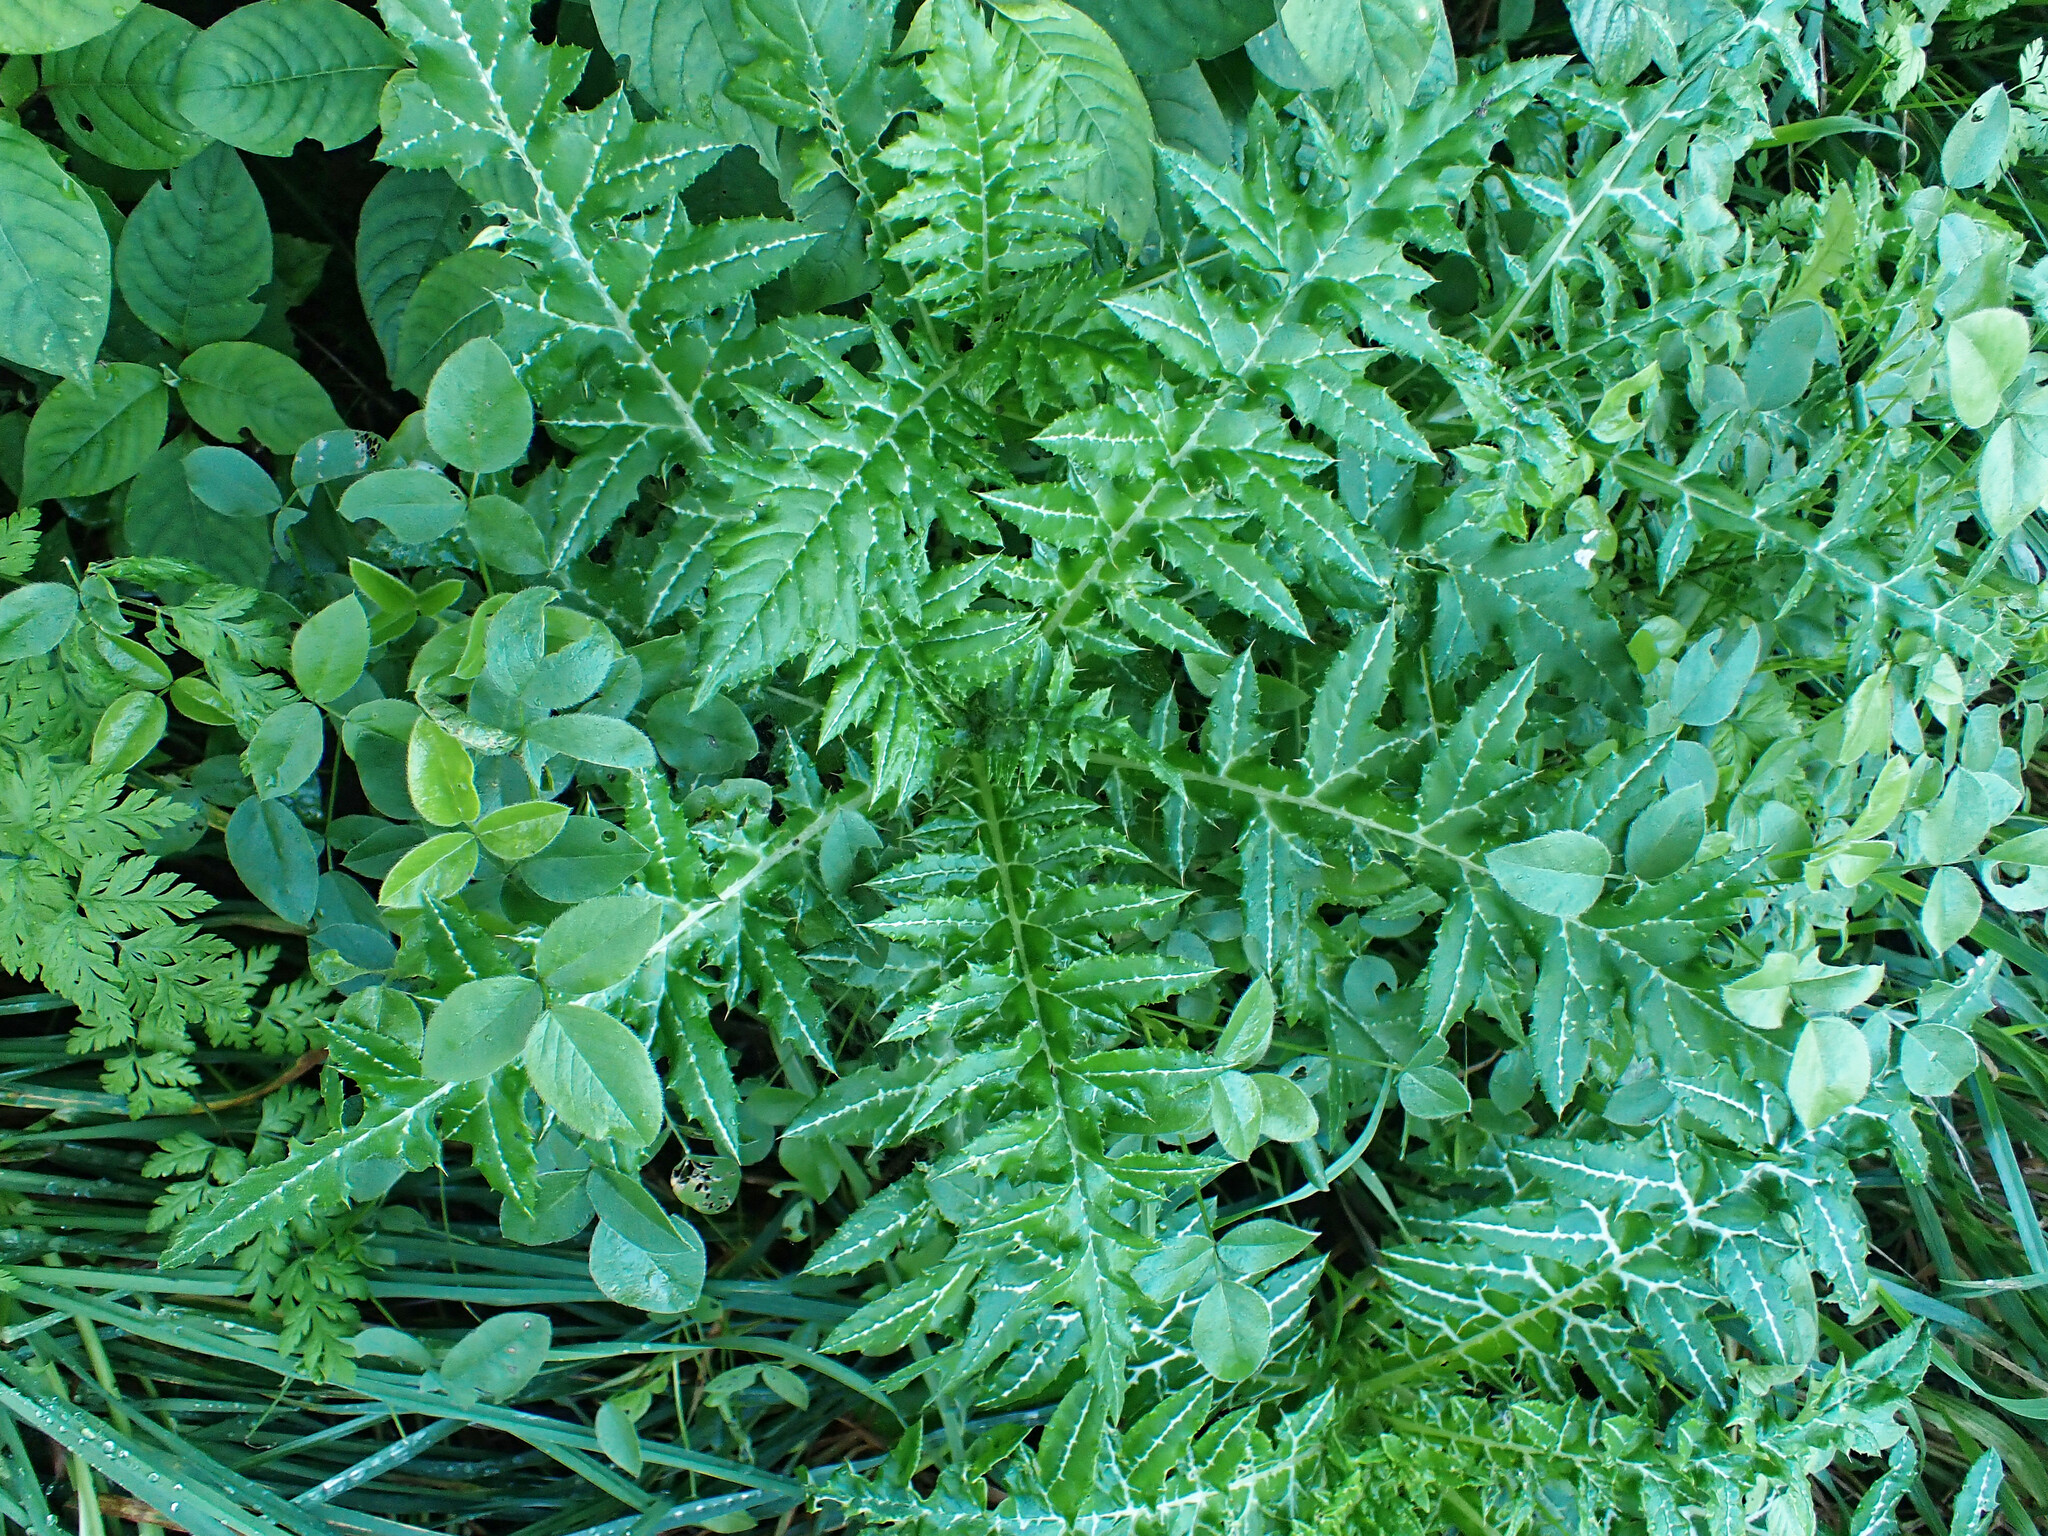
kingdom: Plantae
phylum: Tracheophyta
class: Magnoliopsida
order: Asterales
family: Asteraceae
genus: Galactites
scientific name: Galactites tomentosa
